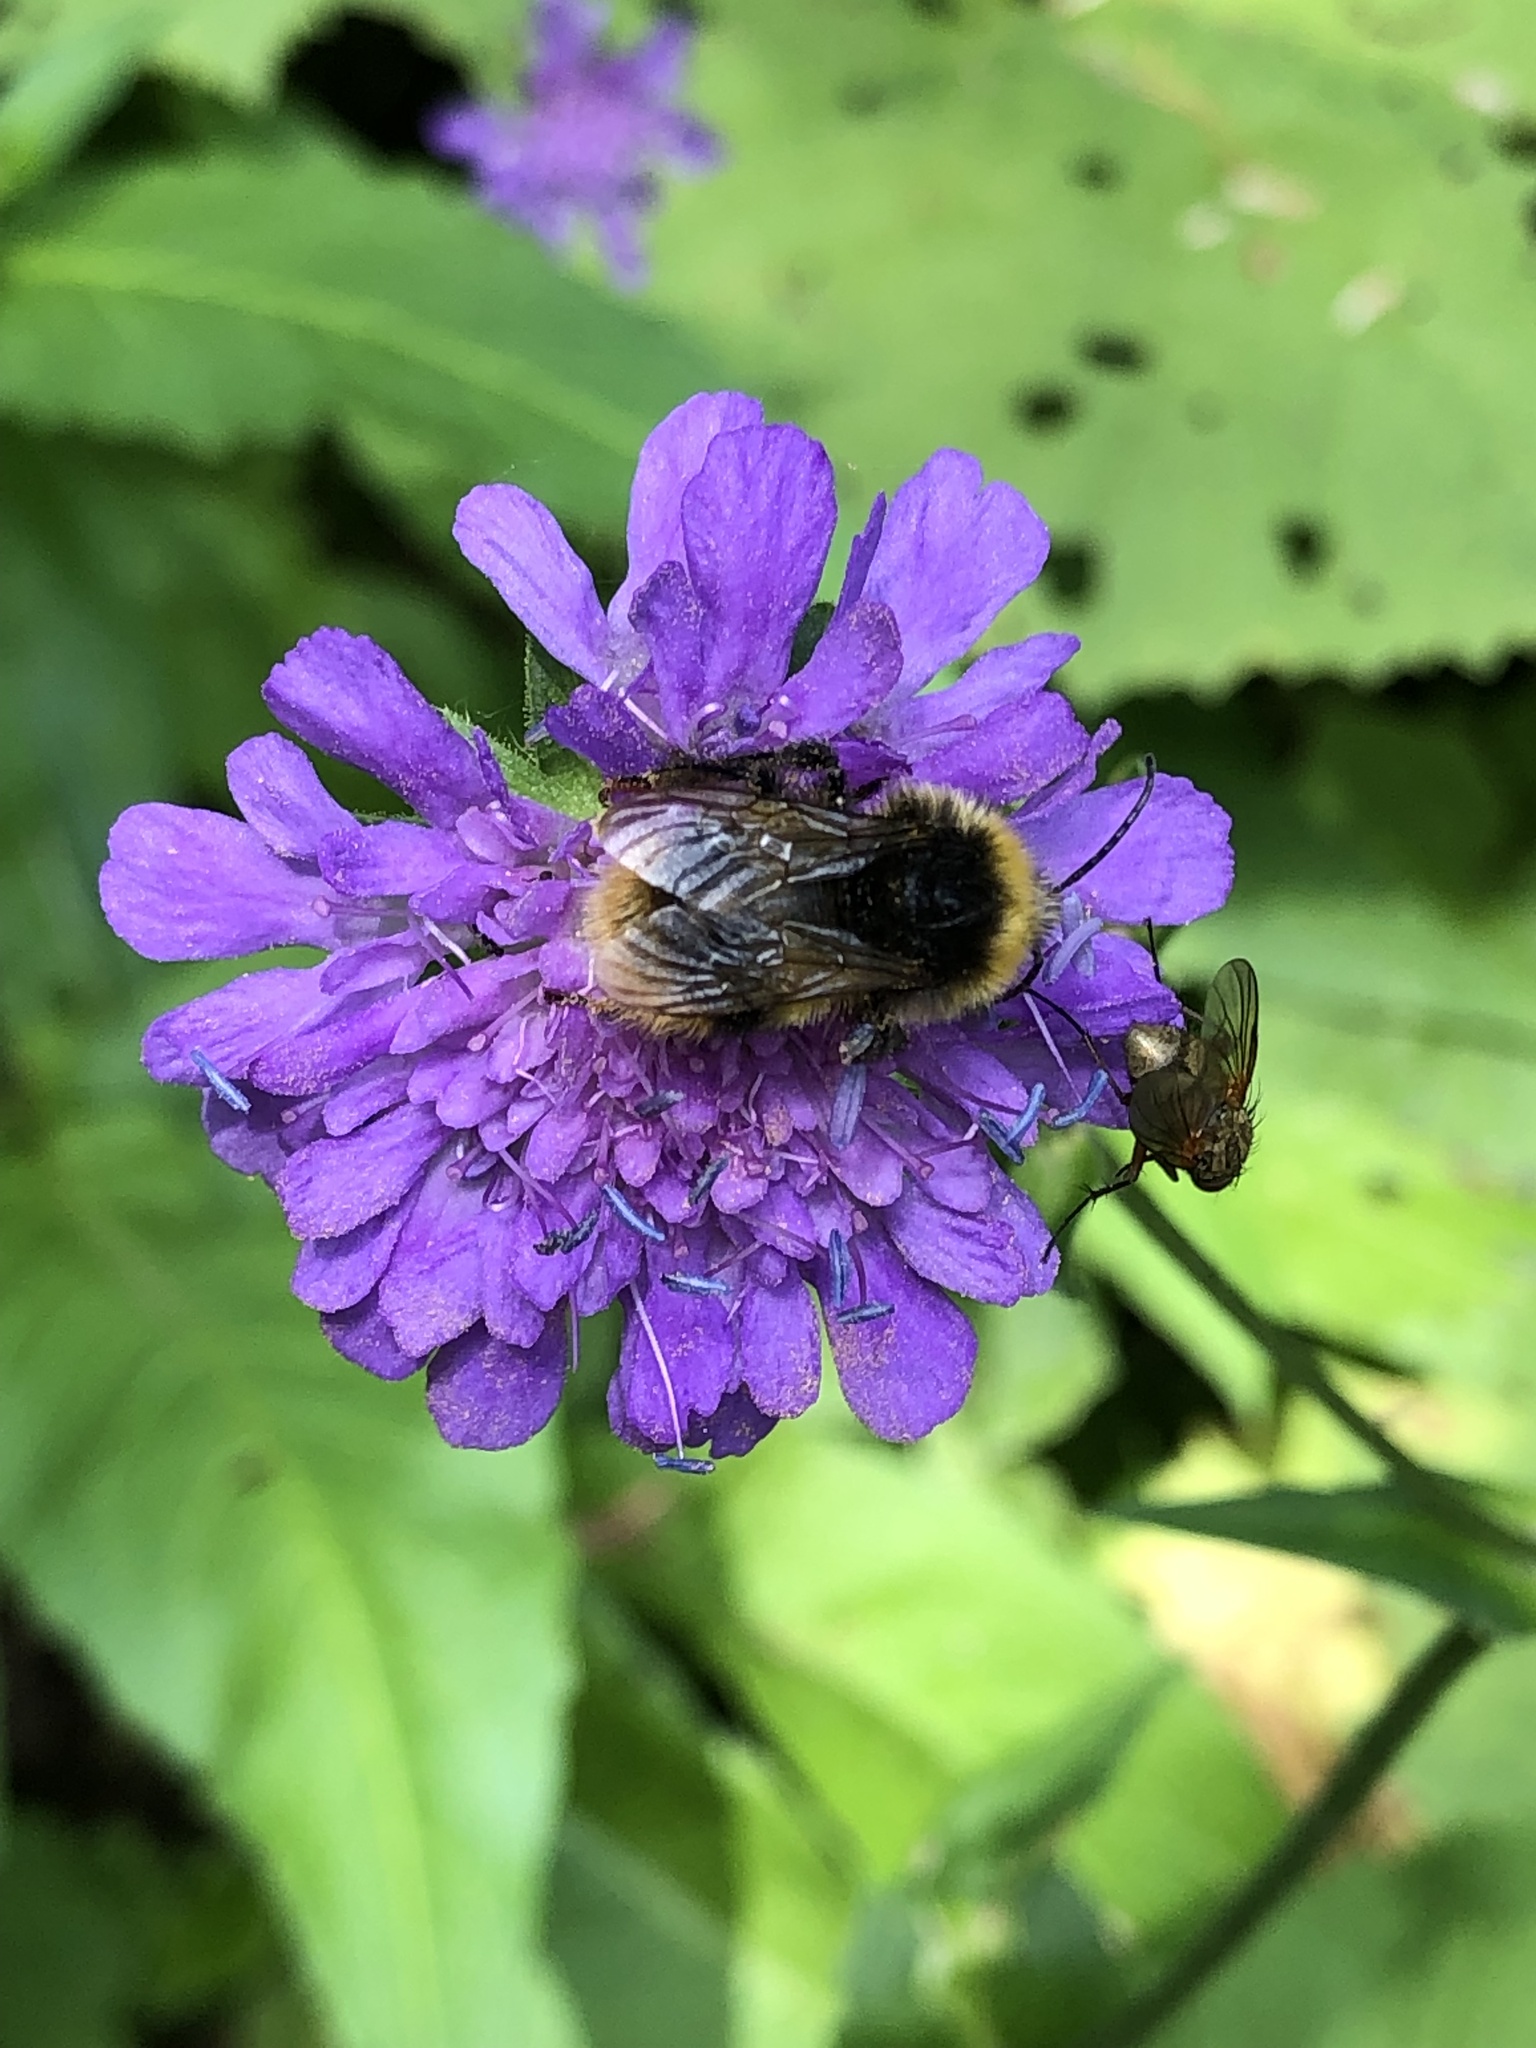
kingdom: Animalia
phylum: Arthropoda
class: Insecta
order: Hymenoptera
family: Apidae
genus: Bombus
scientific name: Bombus pratorum
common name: Early humble-bee
